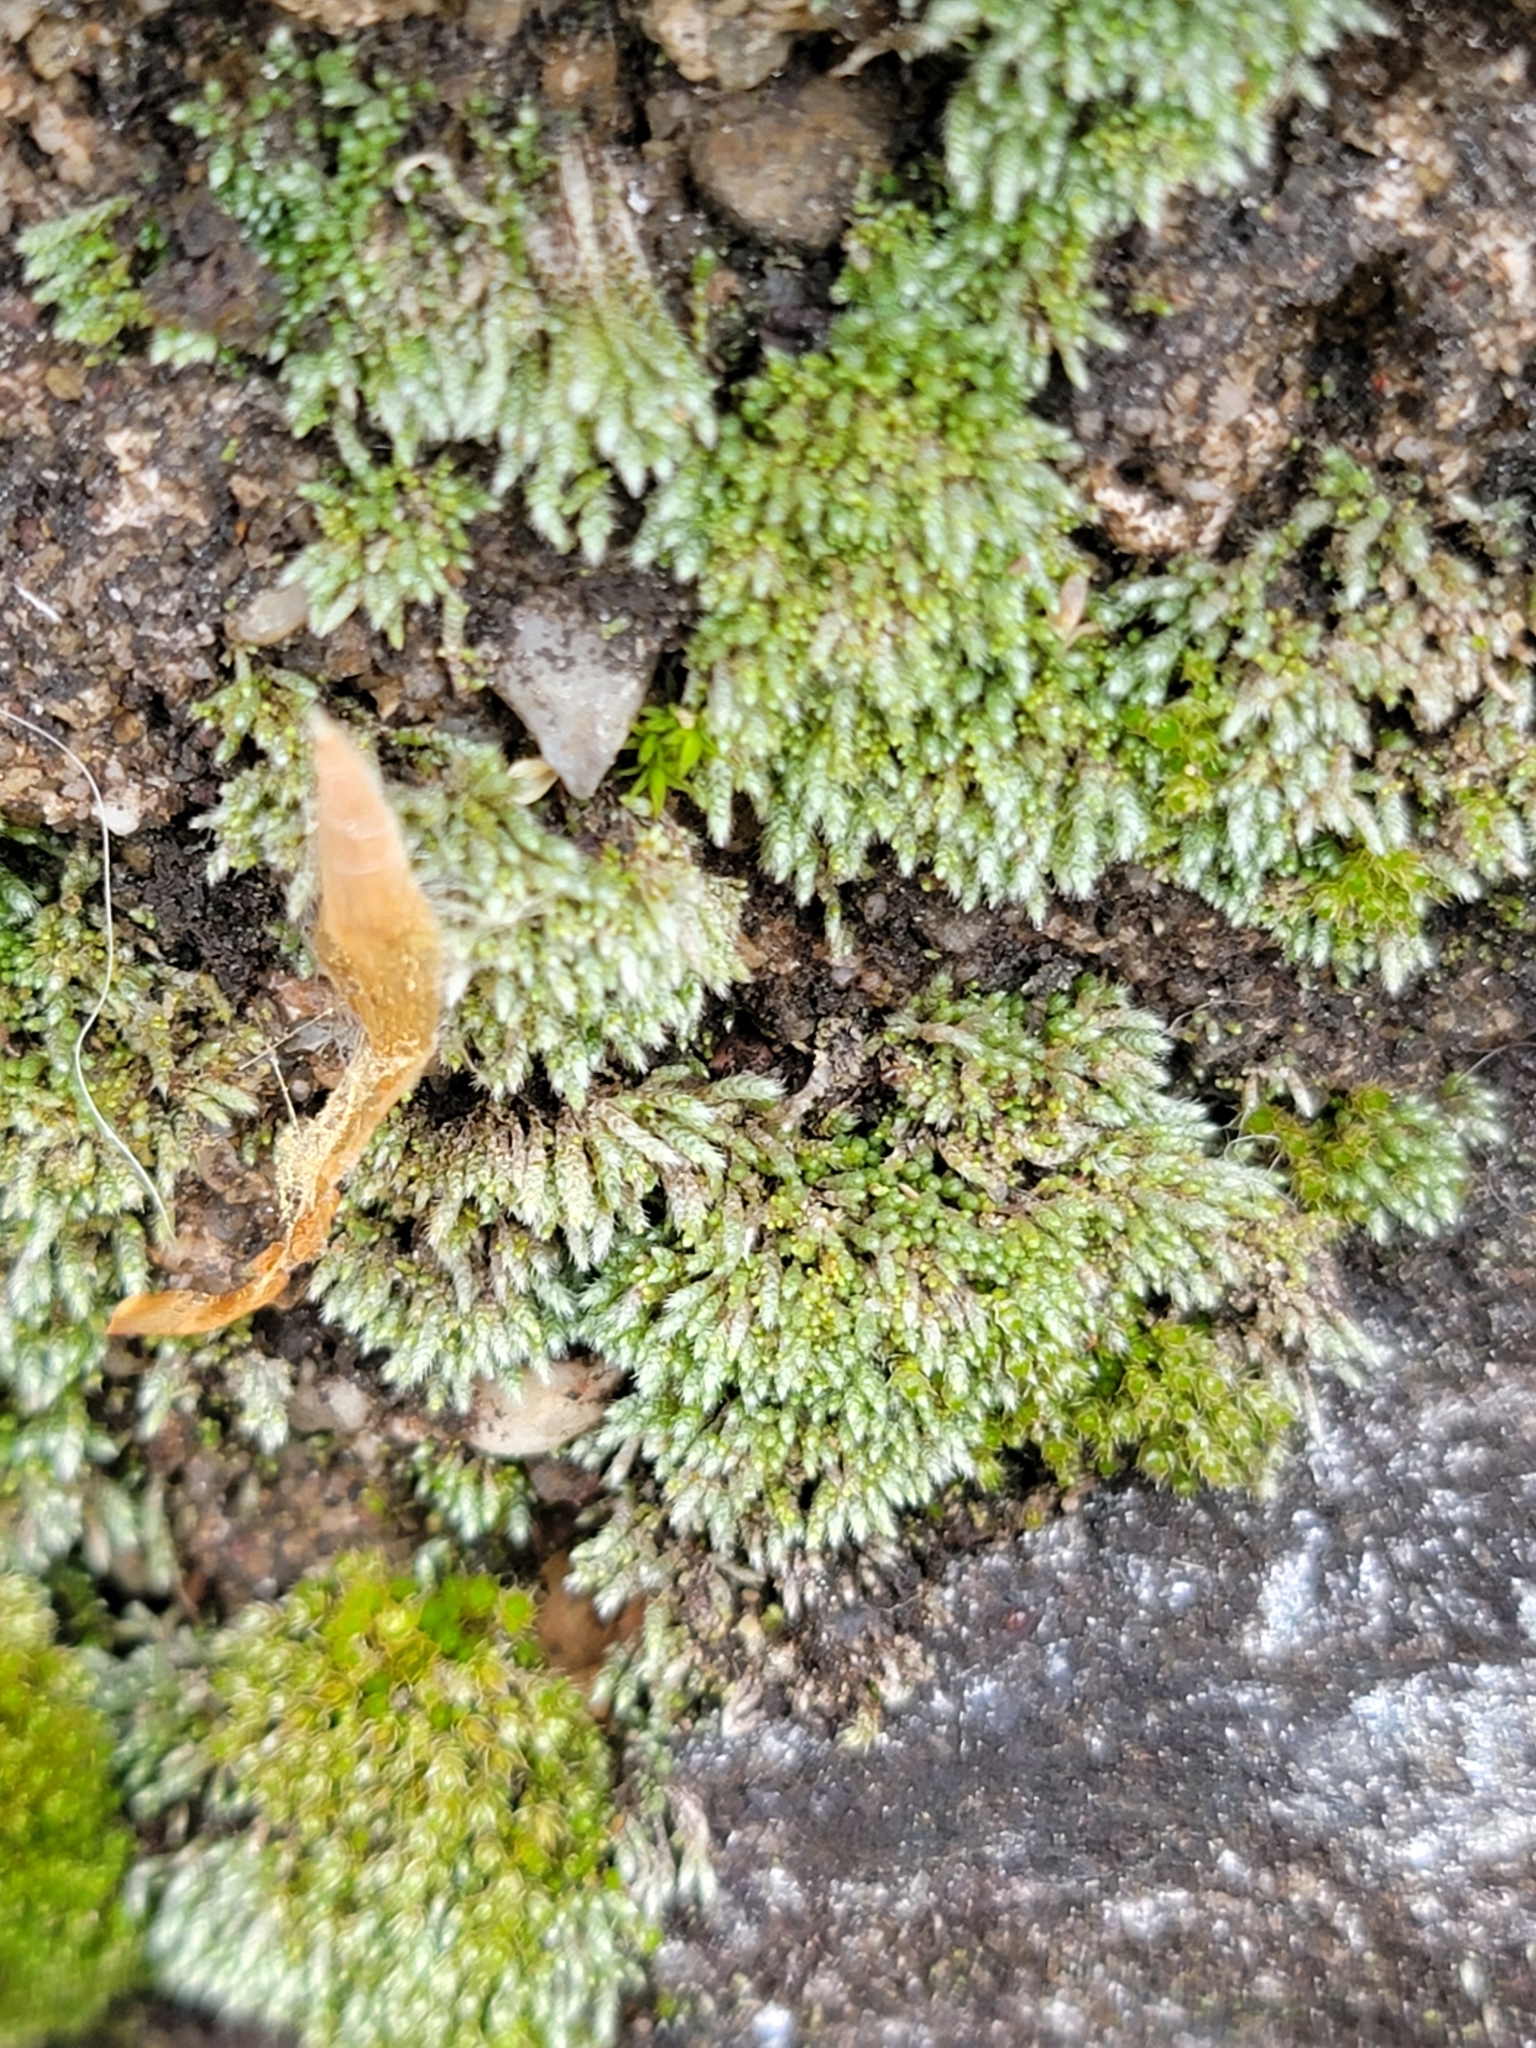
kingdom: Plantae
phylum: Bryophyta
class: Bryopsida
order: Bryales
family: Bryaceae
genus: Bryum
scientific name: Bryum argenteum
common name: Silver-moss
